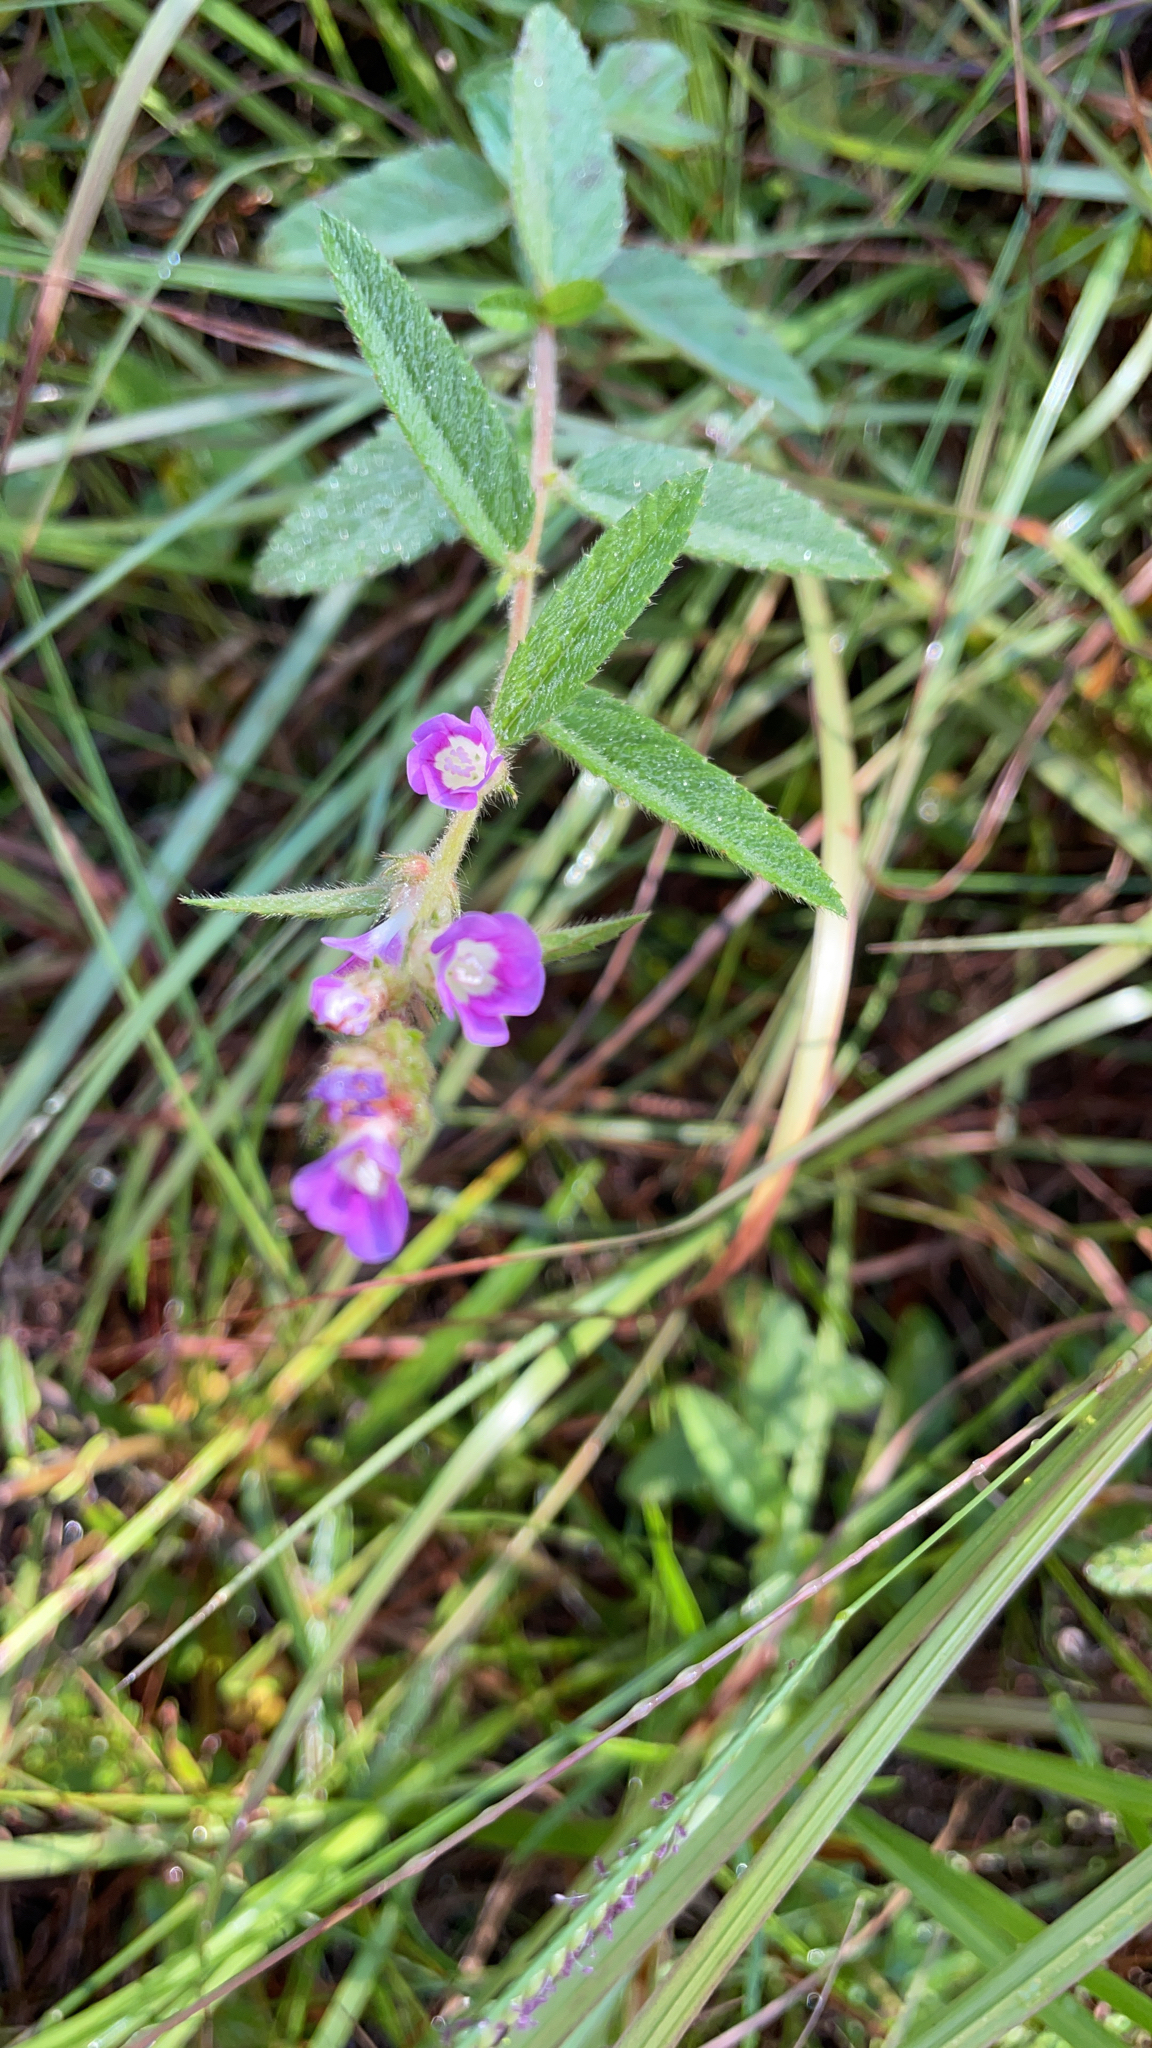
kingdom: Plantae
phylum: Tracheophyta
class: Magnoliopsida
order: Malvales
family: Malvaceae
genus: Melochia
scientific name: Melochia spicata
